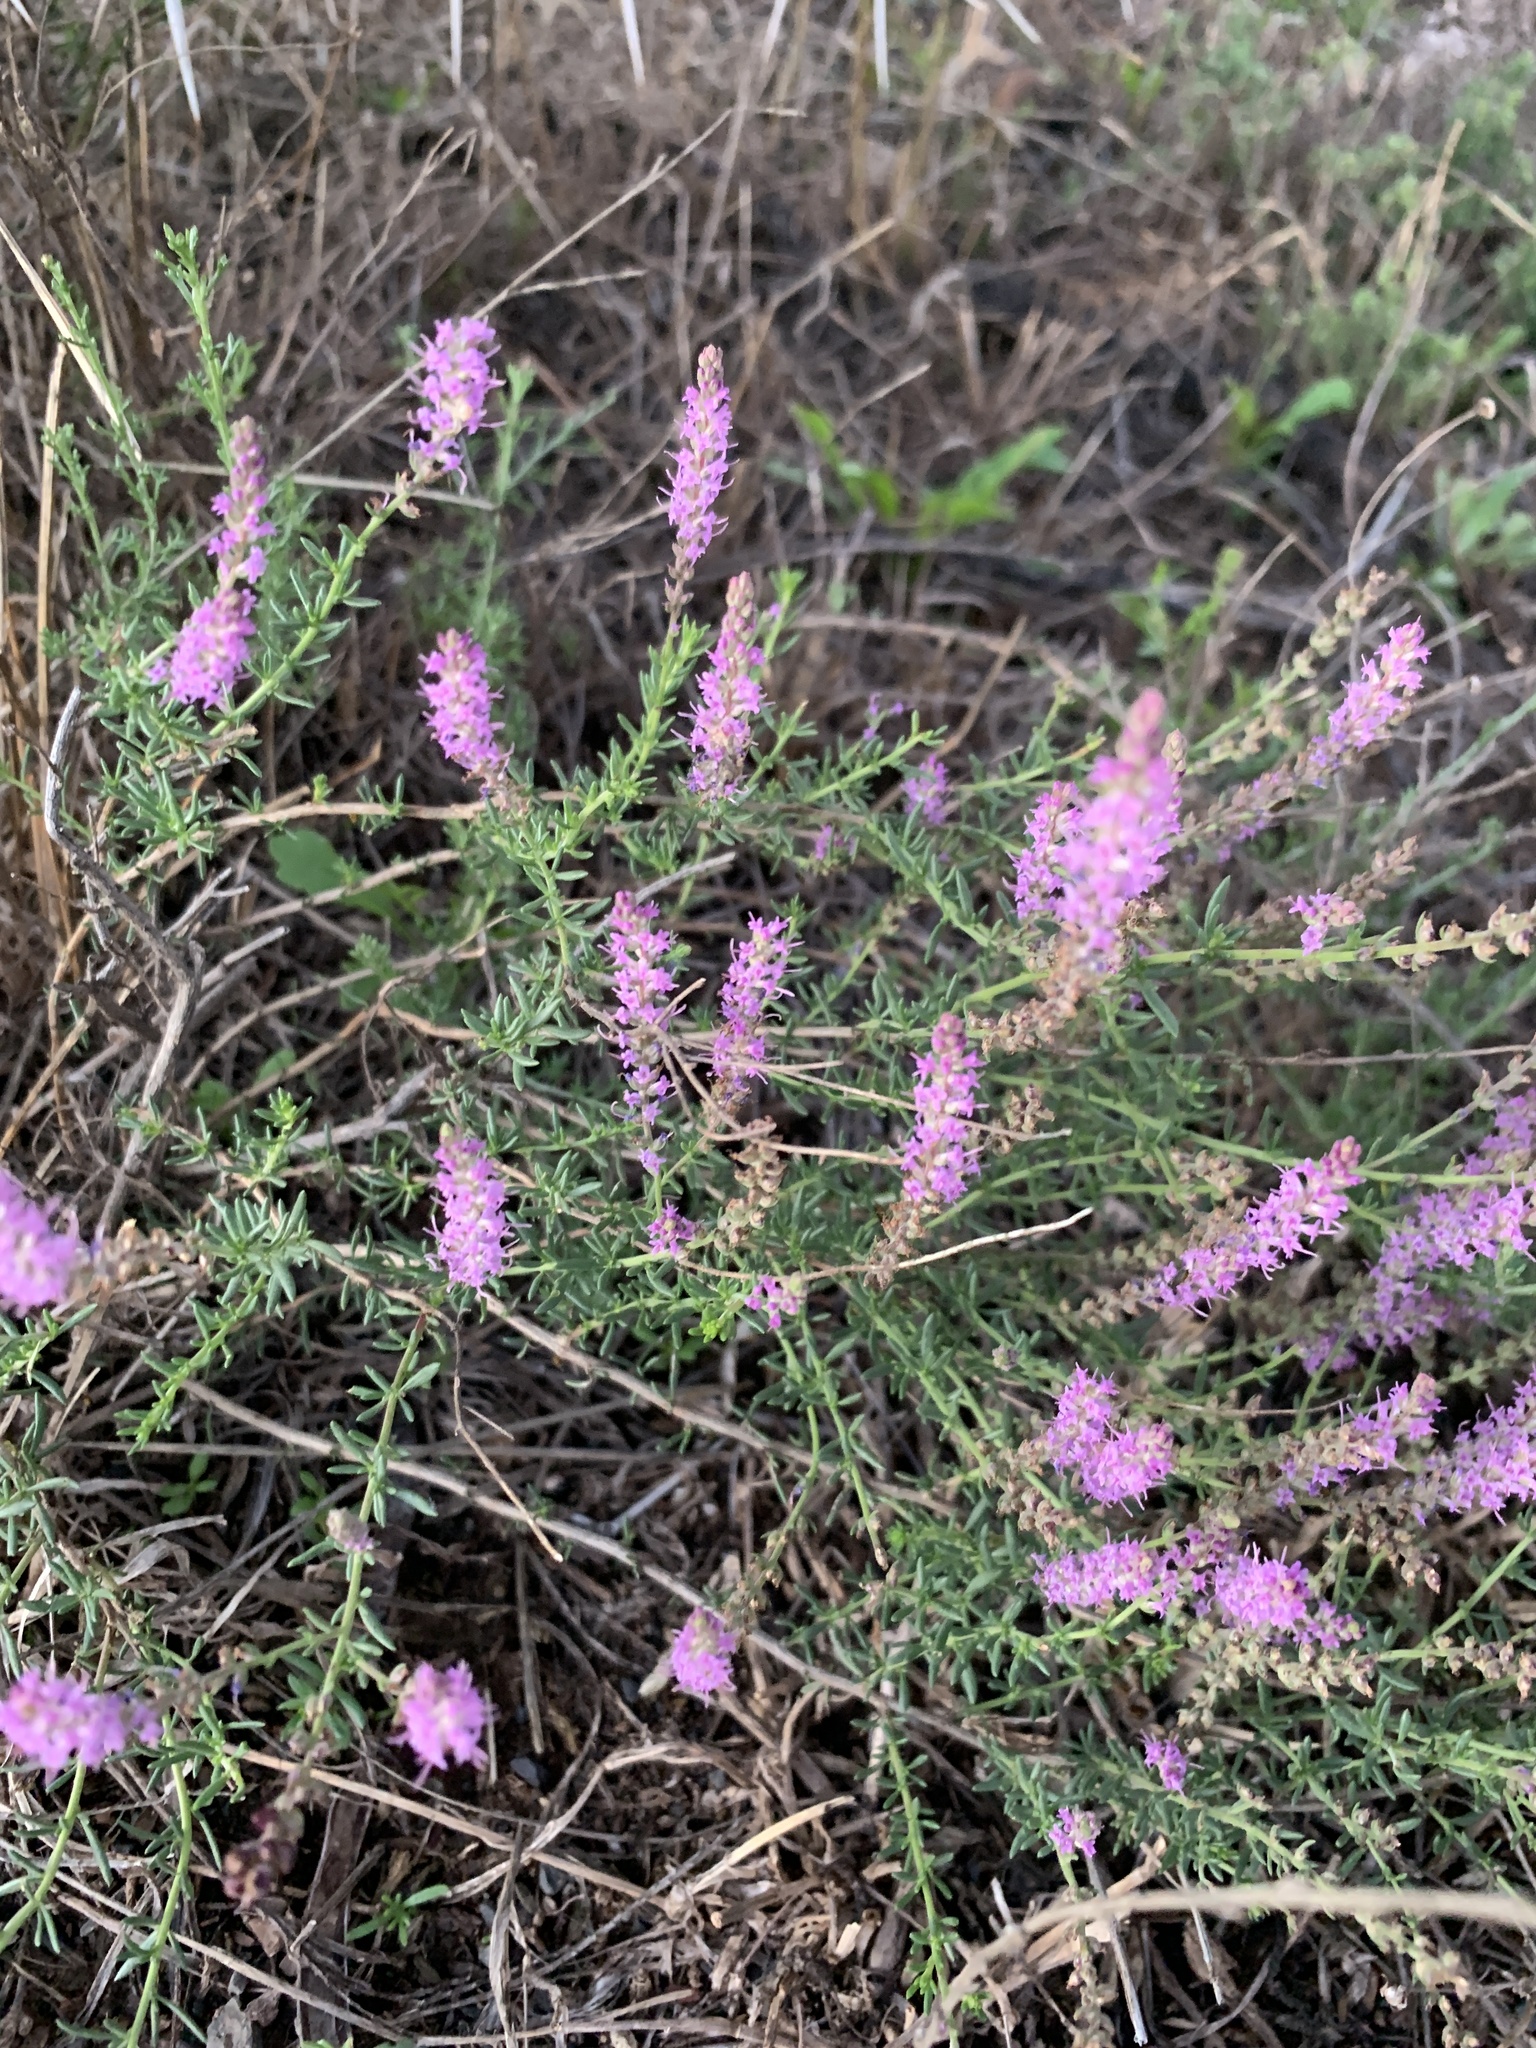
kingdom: Plantae
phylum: Tracheophyta
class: Magnoliopsida
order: Lamiales
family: Scrophulariaceae
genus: Selago
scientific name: Selago geniculata
